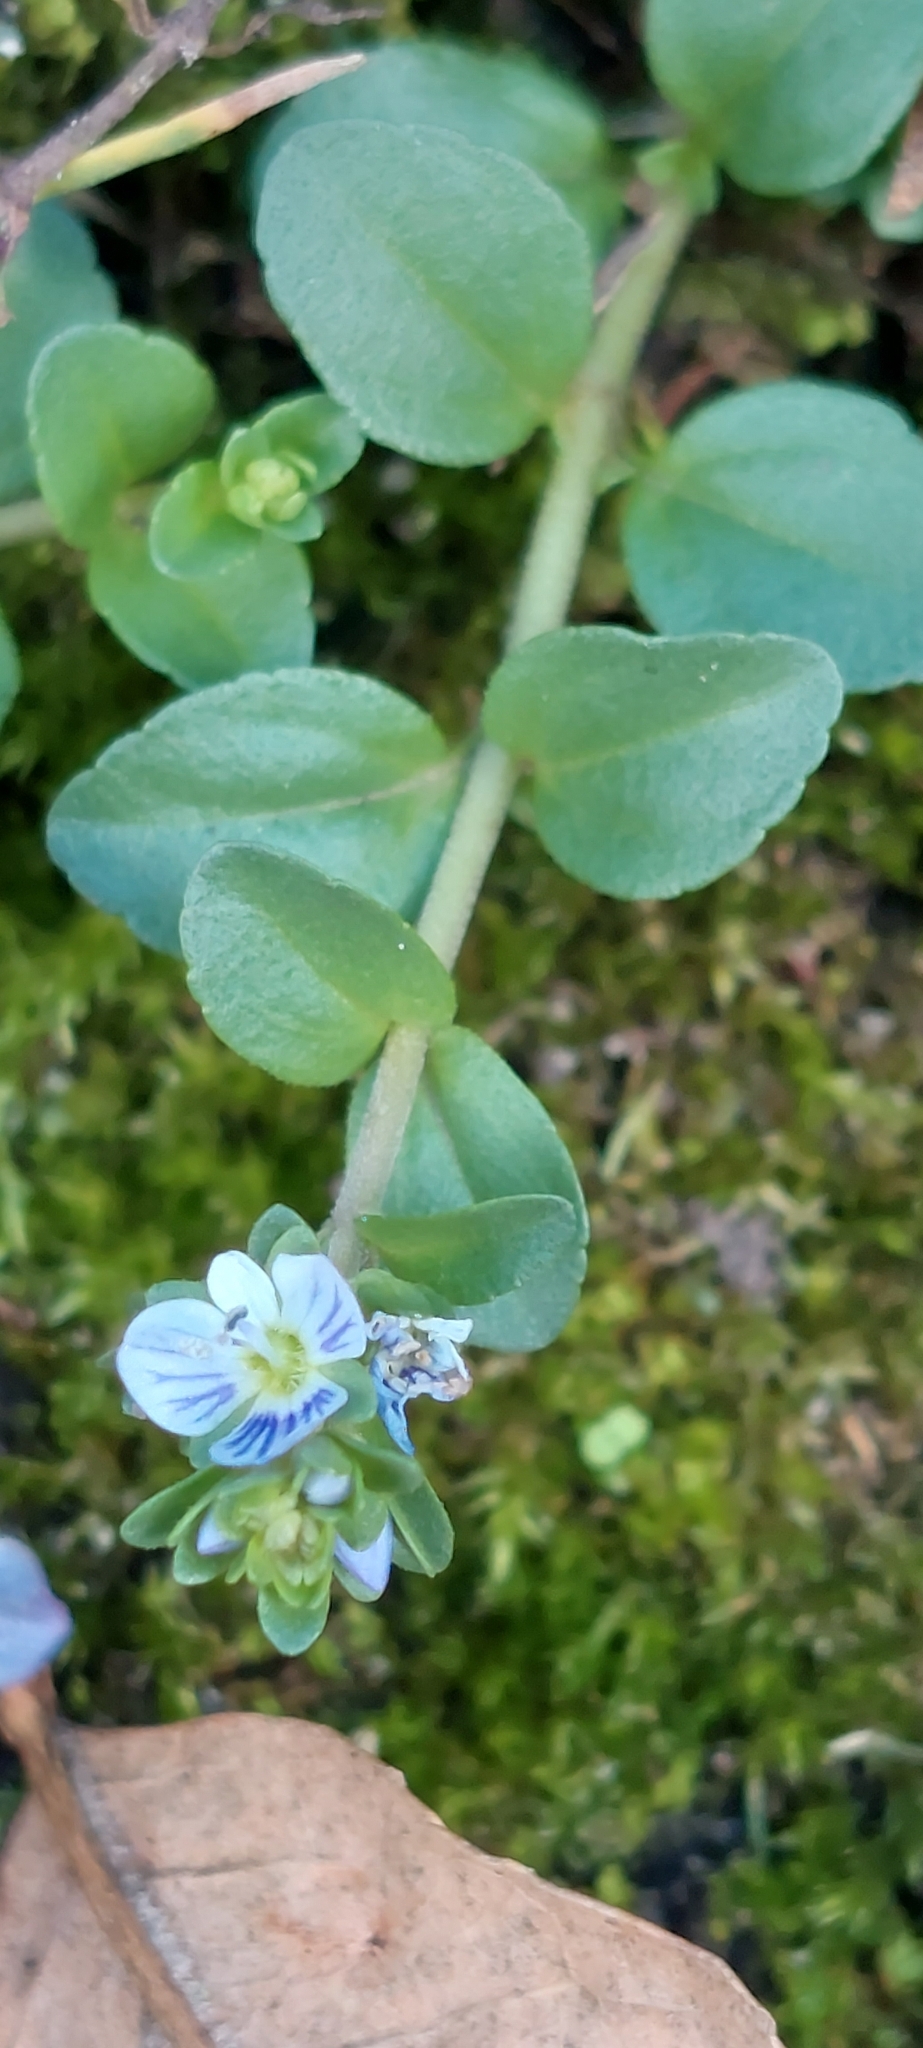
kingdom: Plantae
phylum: Tracheophyta
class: Magnoliopsida
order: Lamiales
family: Plantaginaceae
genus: Veronica
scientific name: Veronica serpyllifolia
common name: Thyme-leaved speedwell
